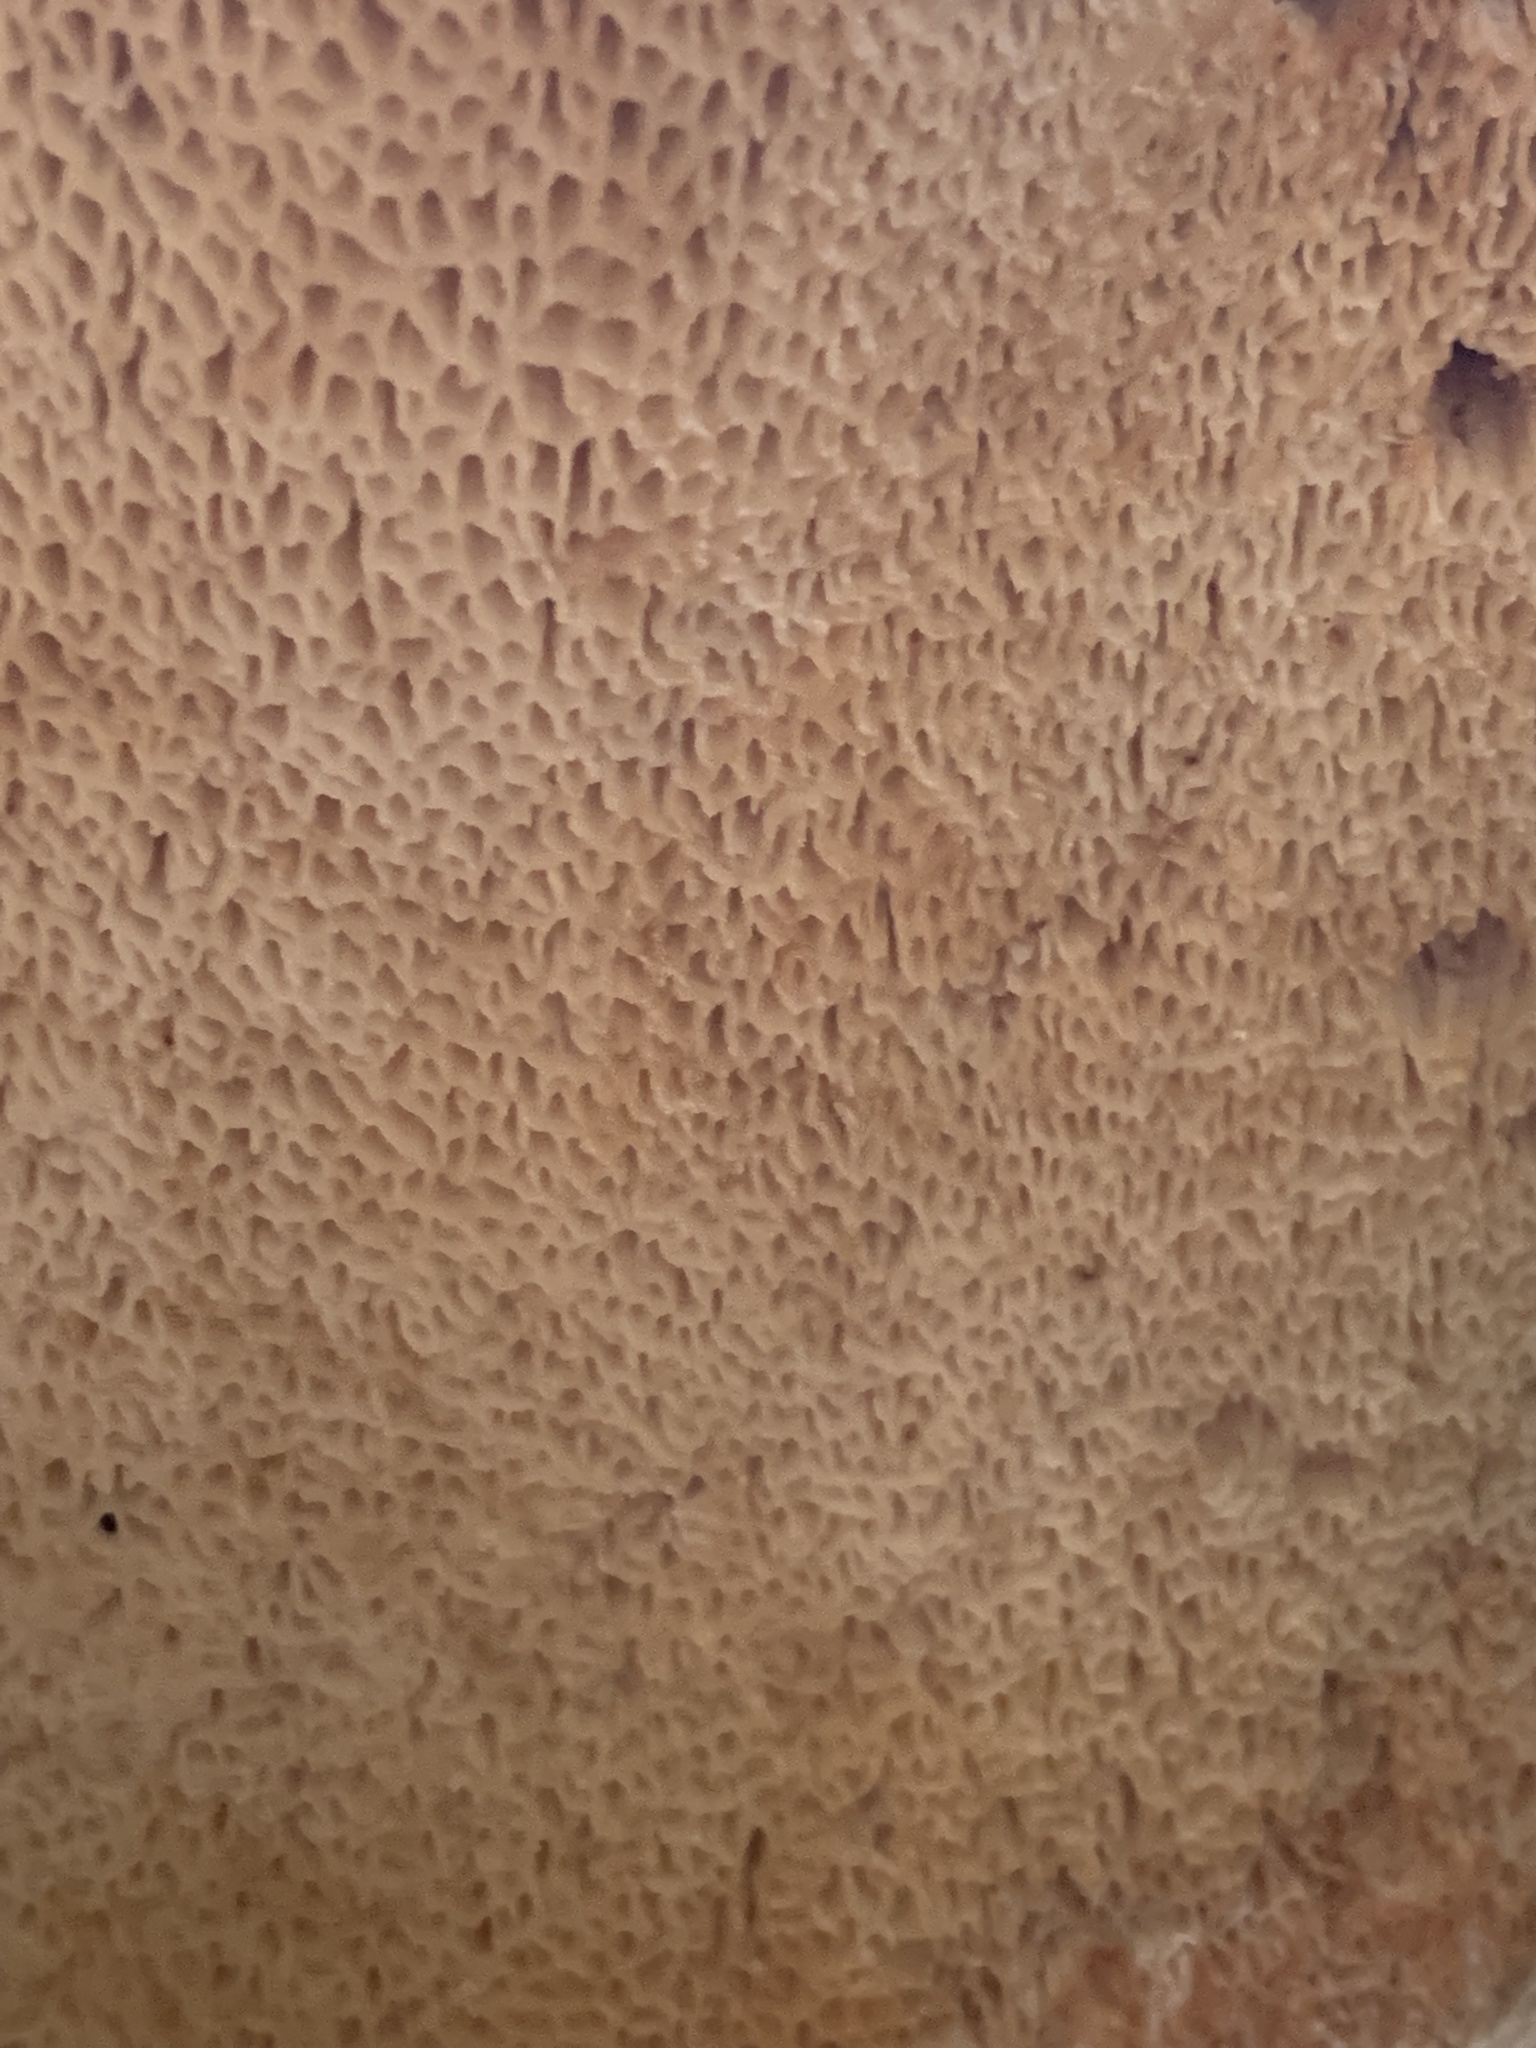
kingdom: Fungi
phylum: Basidiomycota
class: Agaricomycetes
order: Polyporales
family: Polyporaceae
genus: Cerioporus
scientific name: Cerioporus squamosus
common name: Dryad's saddle
